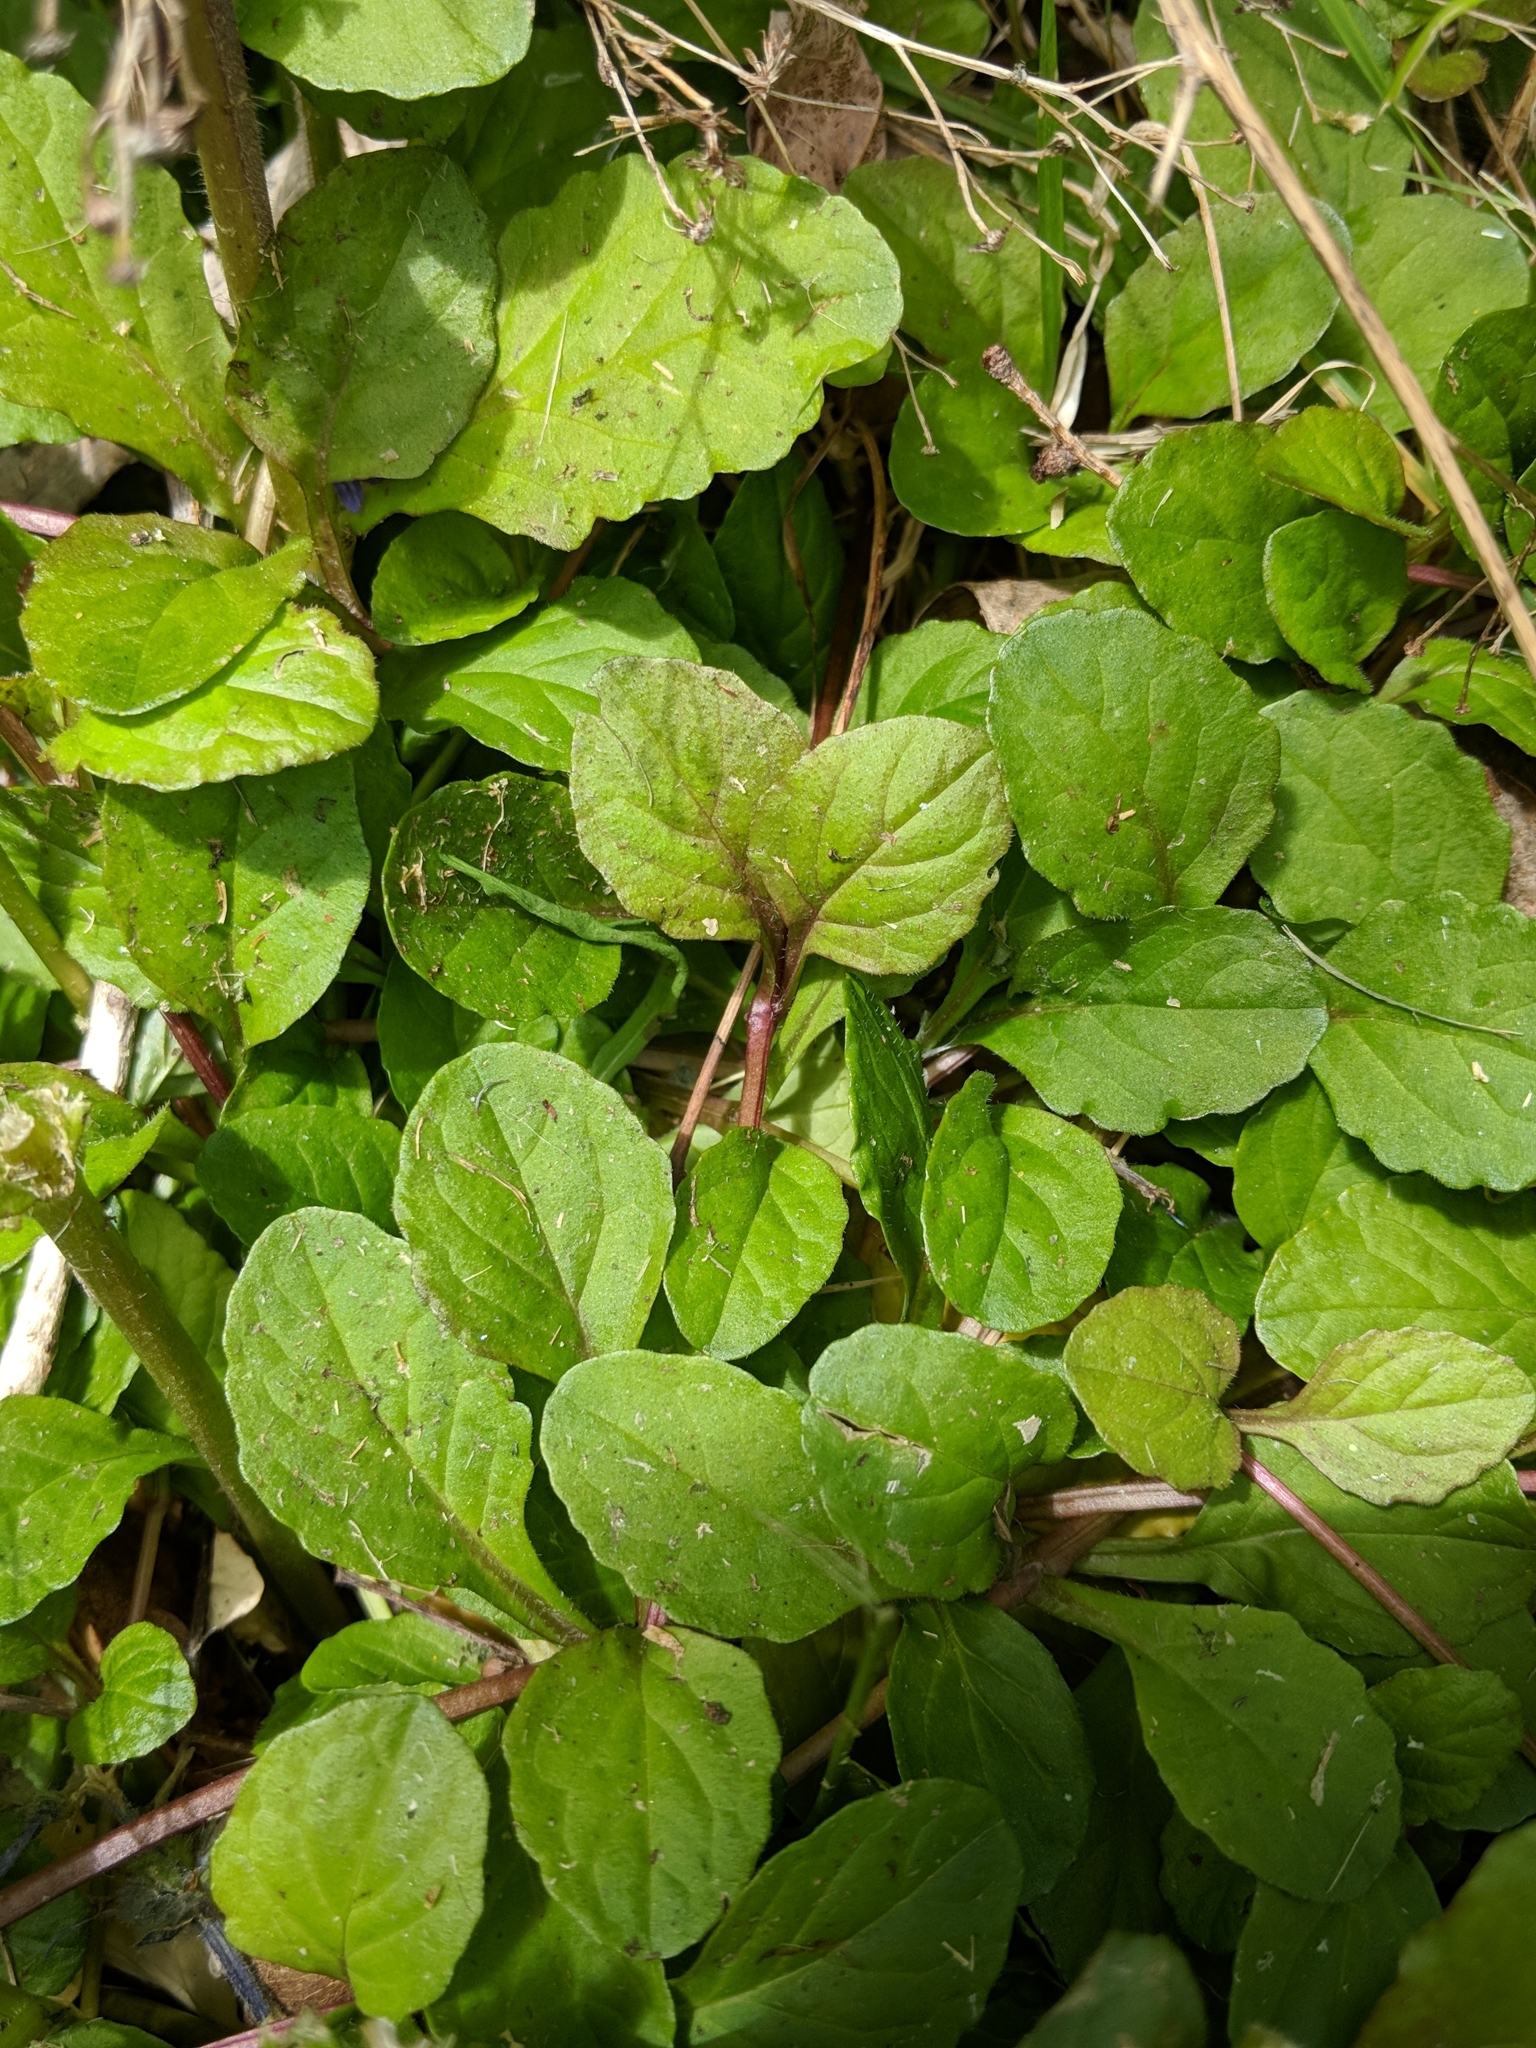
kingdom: Plantae
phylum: Tracheophyta
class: Magnoliopsida
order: Lamiales
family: Lamiaceae
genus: Ajuga
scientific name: Ajuga reptans
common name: Bugle
